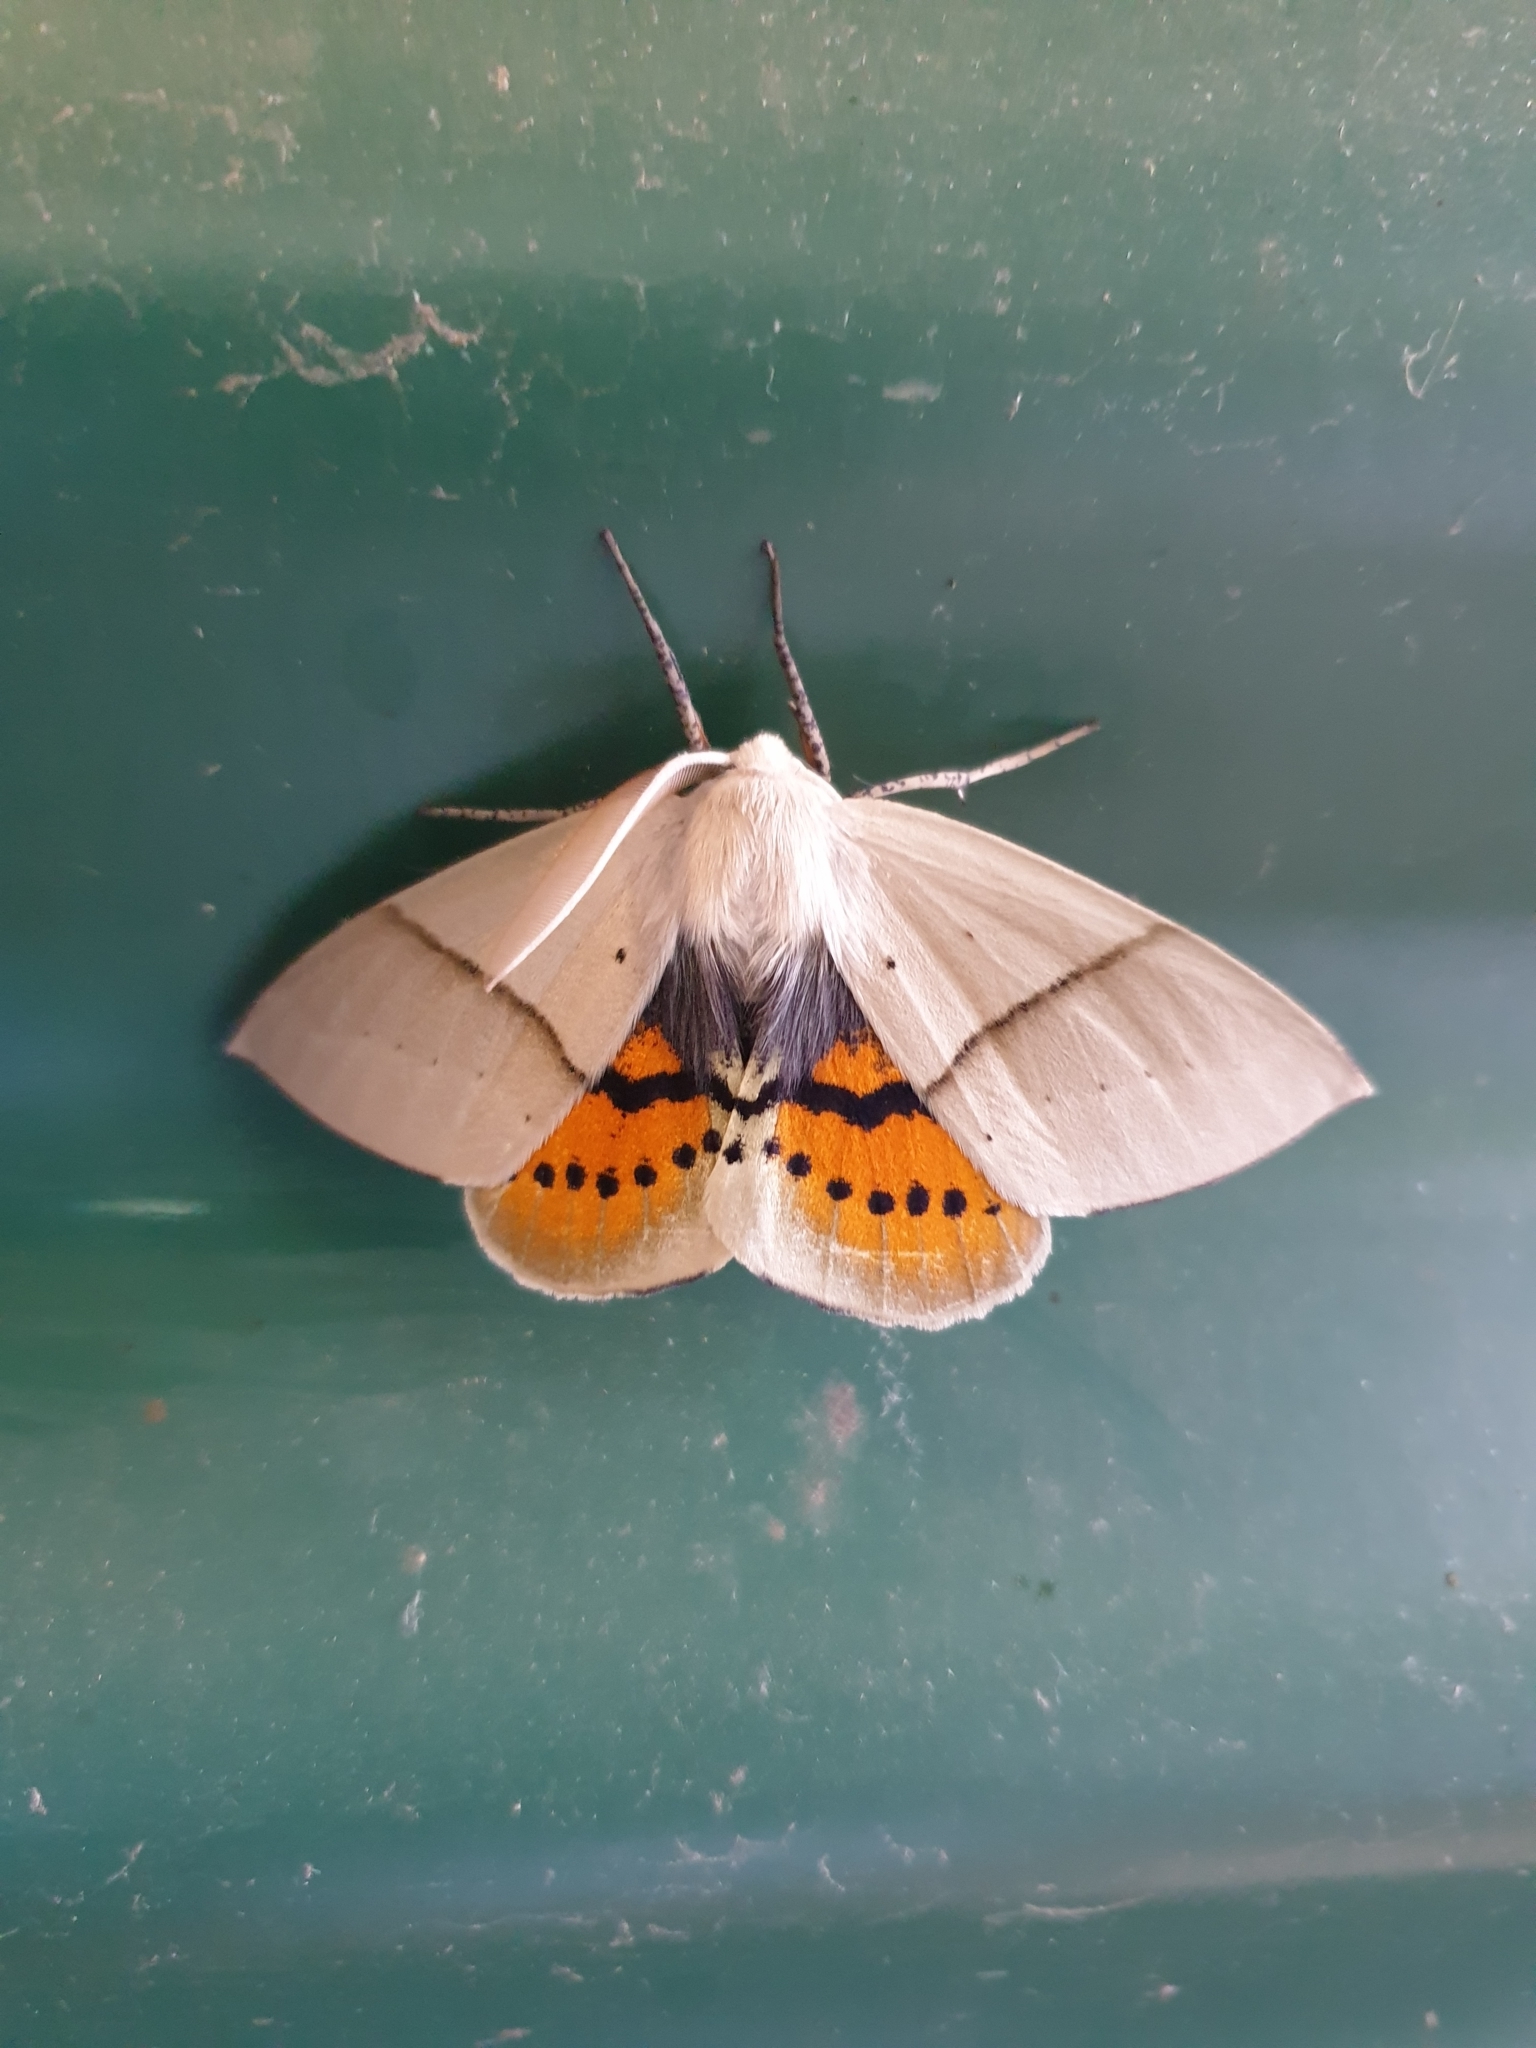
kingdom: Animalia
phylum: Arthropoda
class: Insecta
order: Lepidoptera
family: Geometridae
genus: Gastrophora
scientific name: Gastrophora henricaria
